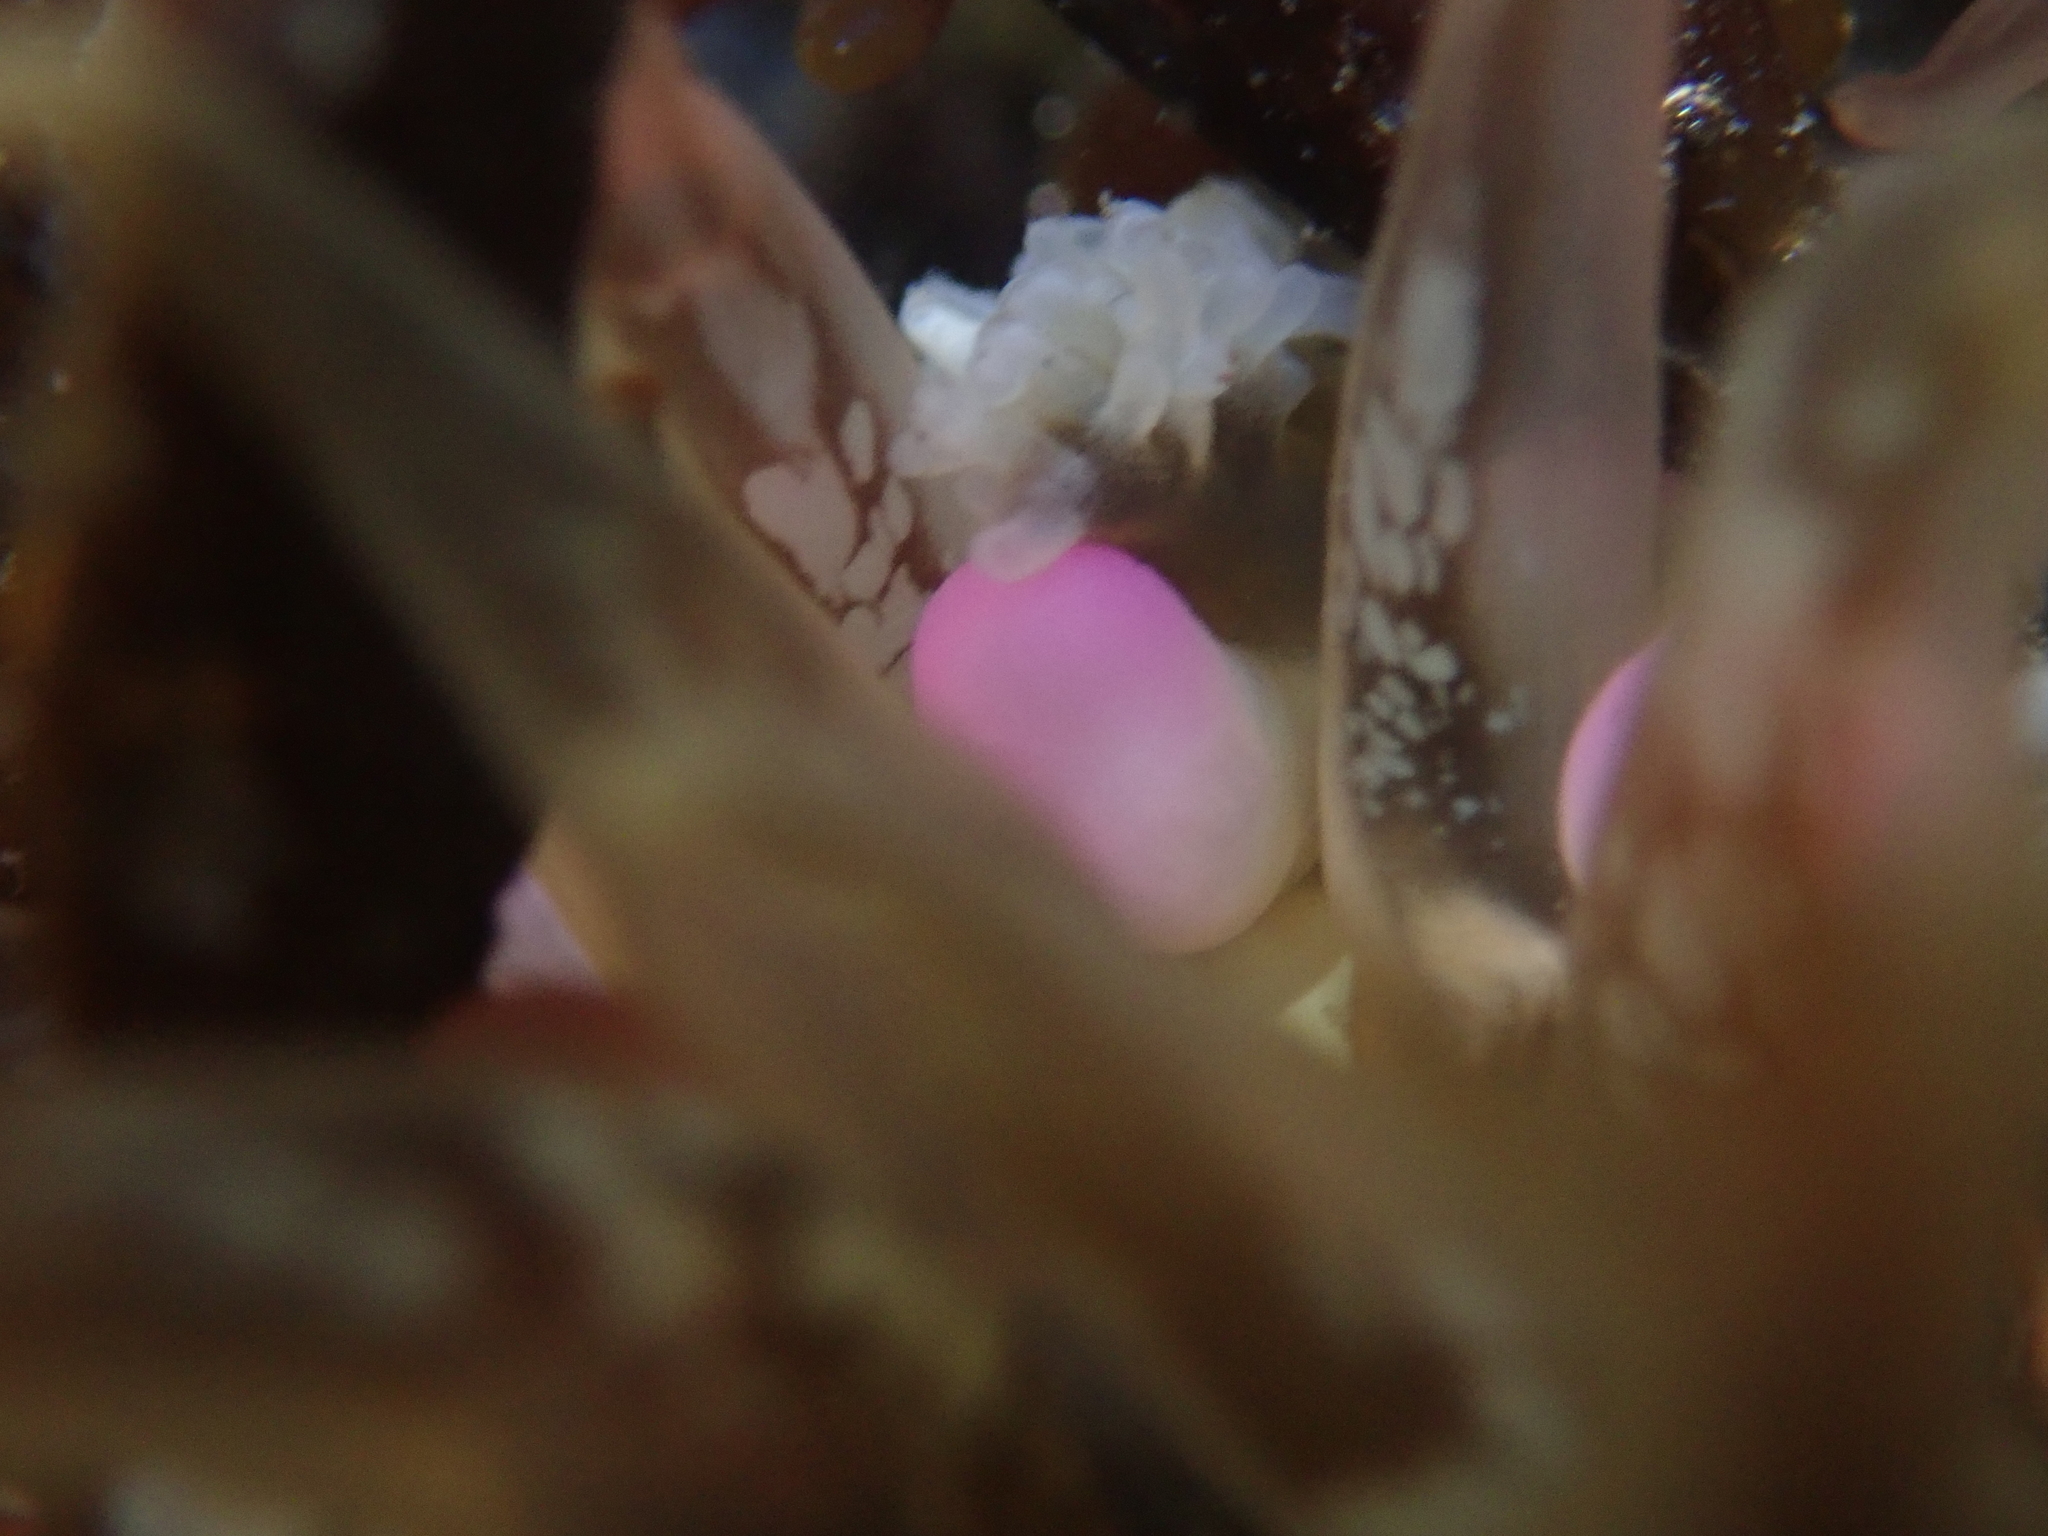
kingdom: Animalia
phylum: Cnidaria
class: Anthozoa
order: Actiniaria
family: Actiniidae
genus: Oulactis
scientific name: Oulactis muscosa
